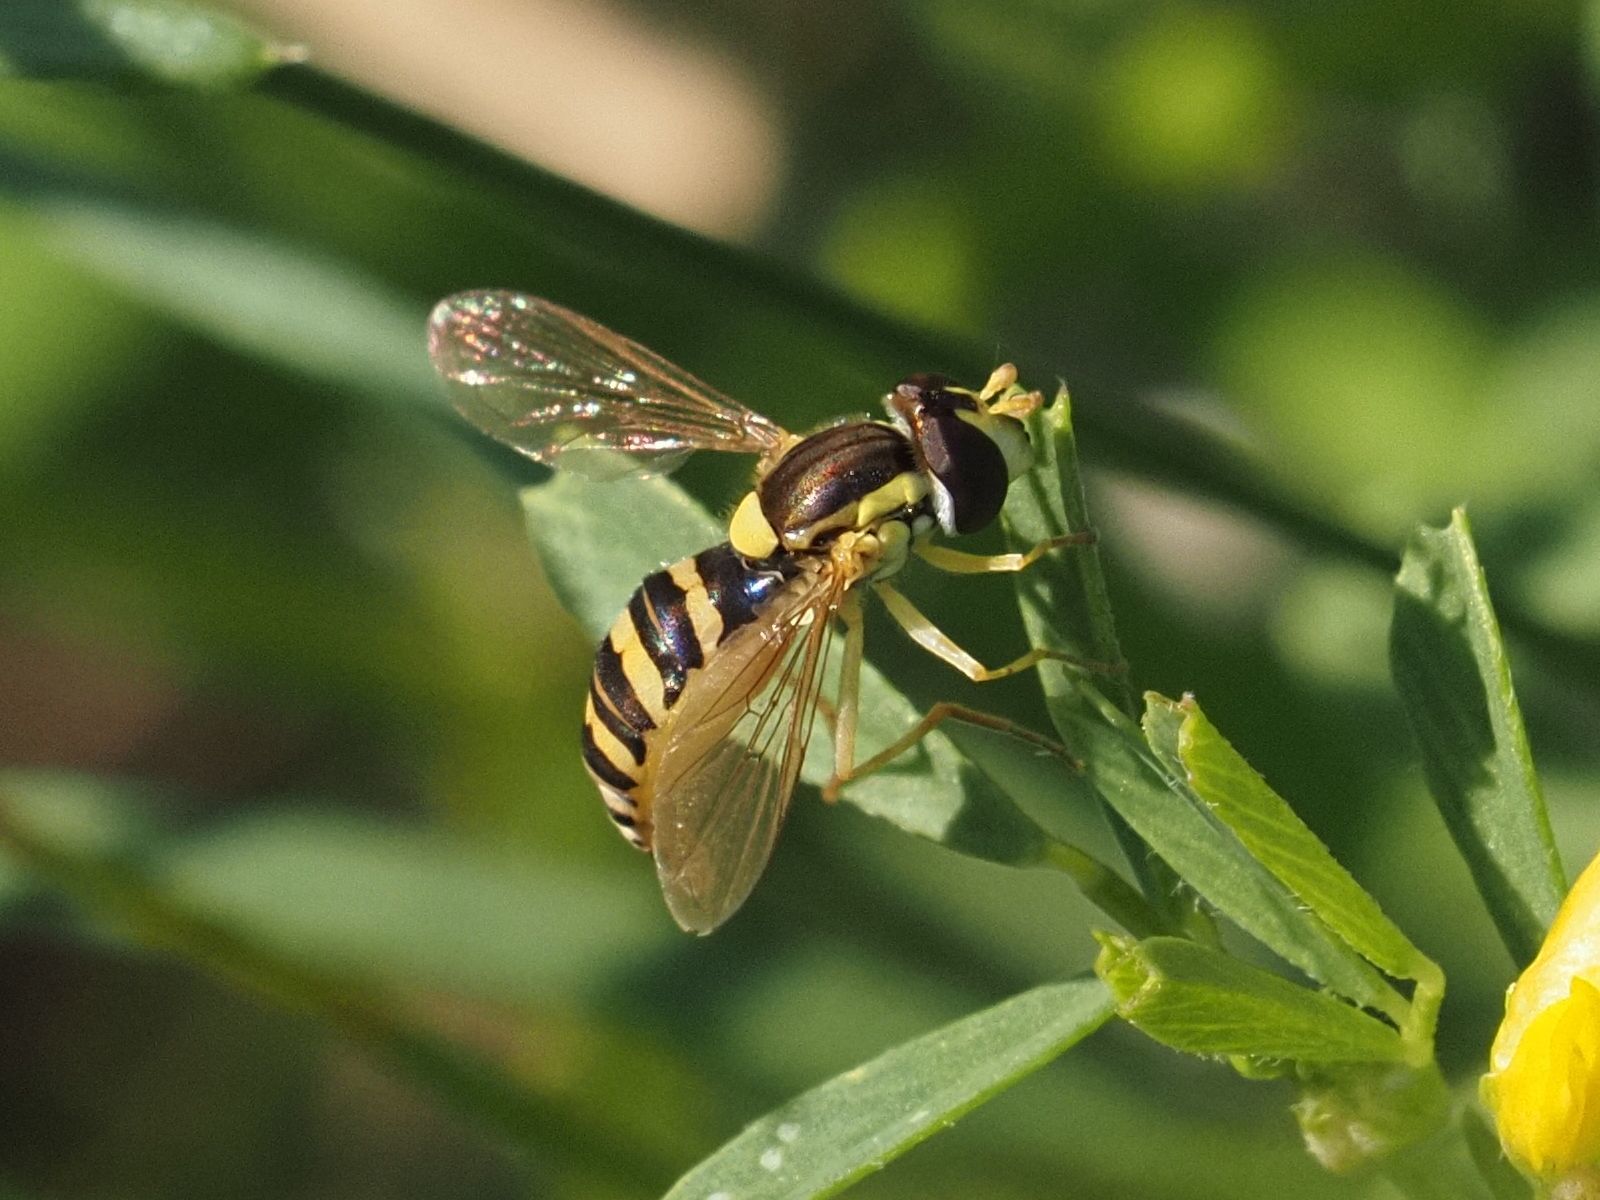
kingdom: Animalia
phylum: Arthropoda
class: Insecta
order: Diptera
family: Syrphidae
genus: Sphaerophoria
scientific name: Sphaerophoria
